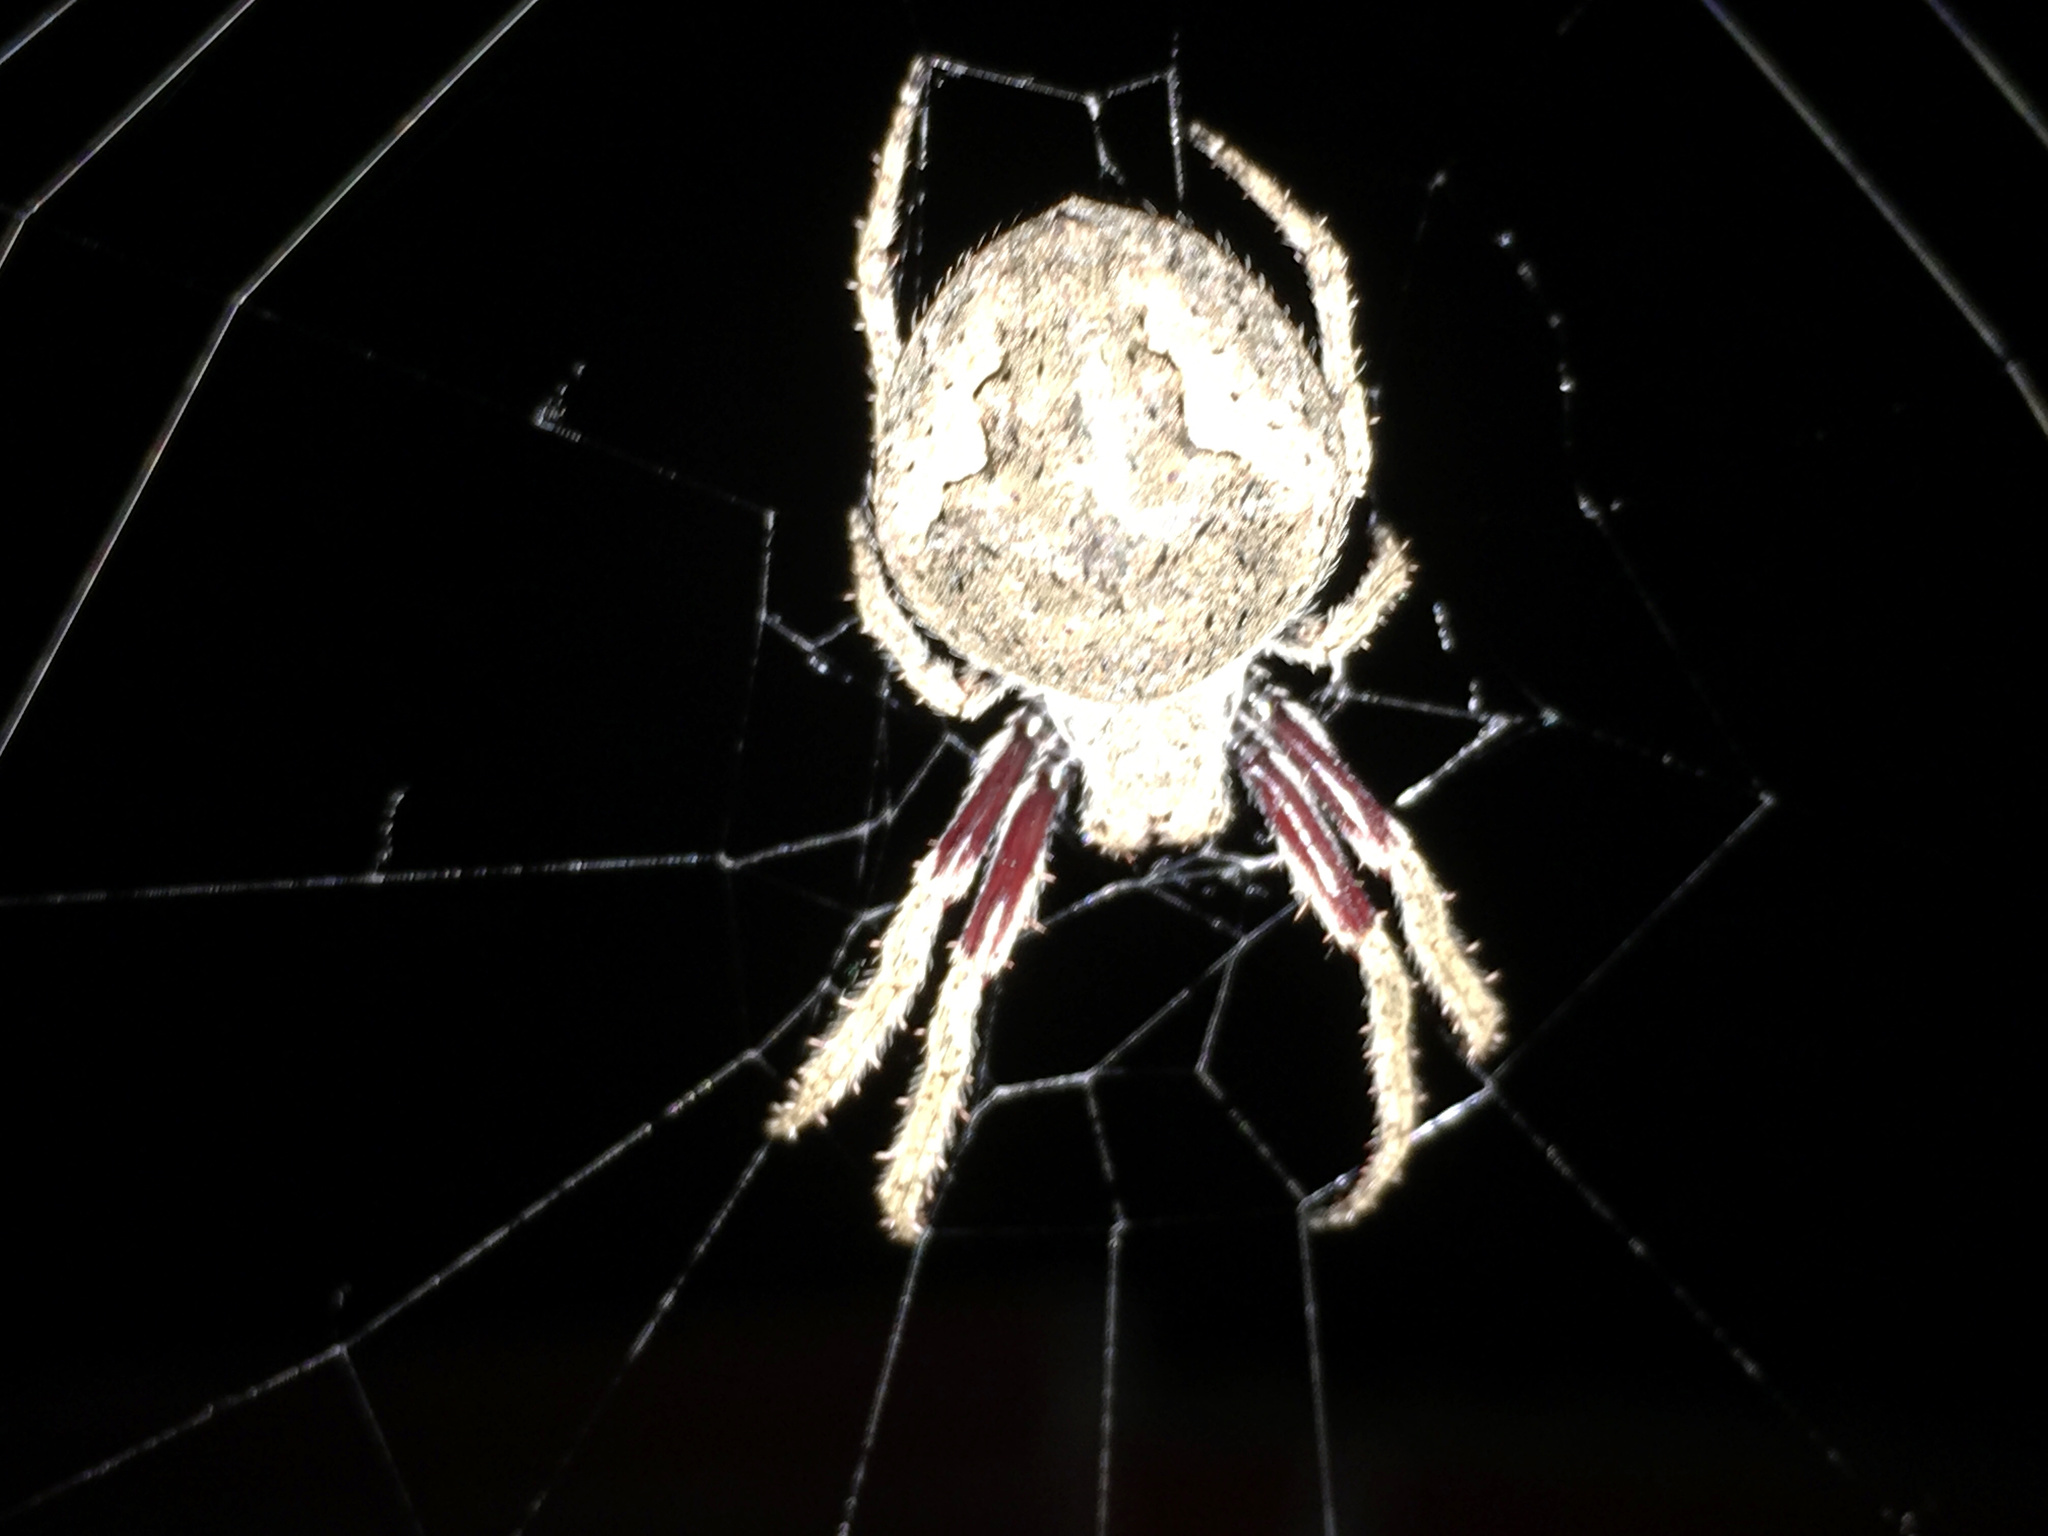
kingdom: Animalia
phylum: Arthropoda
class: Arachnida
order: Araneae
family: Araneidae
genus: Eriophora
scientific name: Eriophora pustulosa
